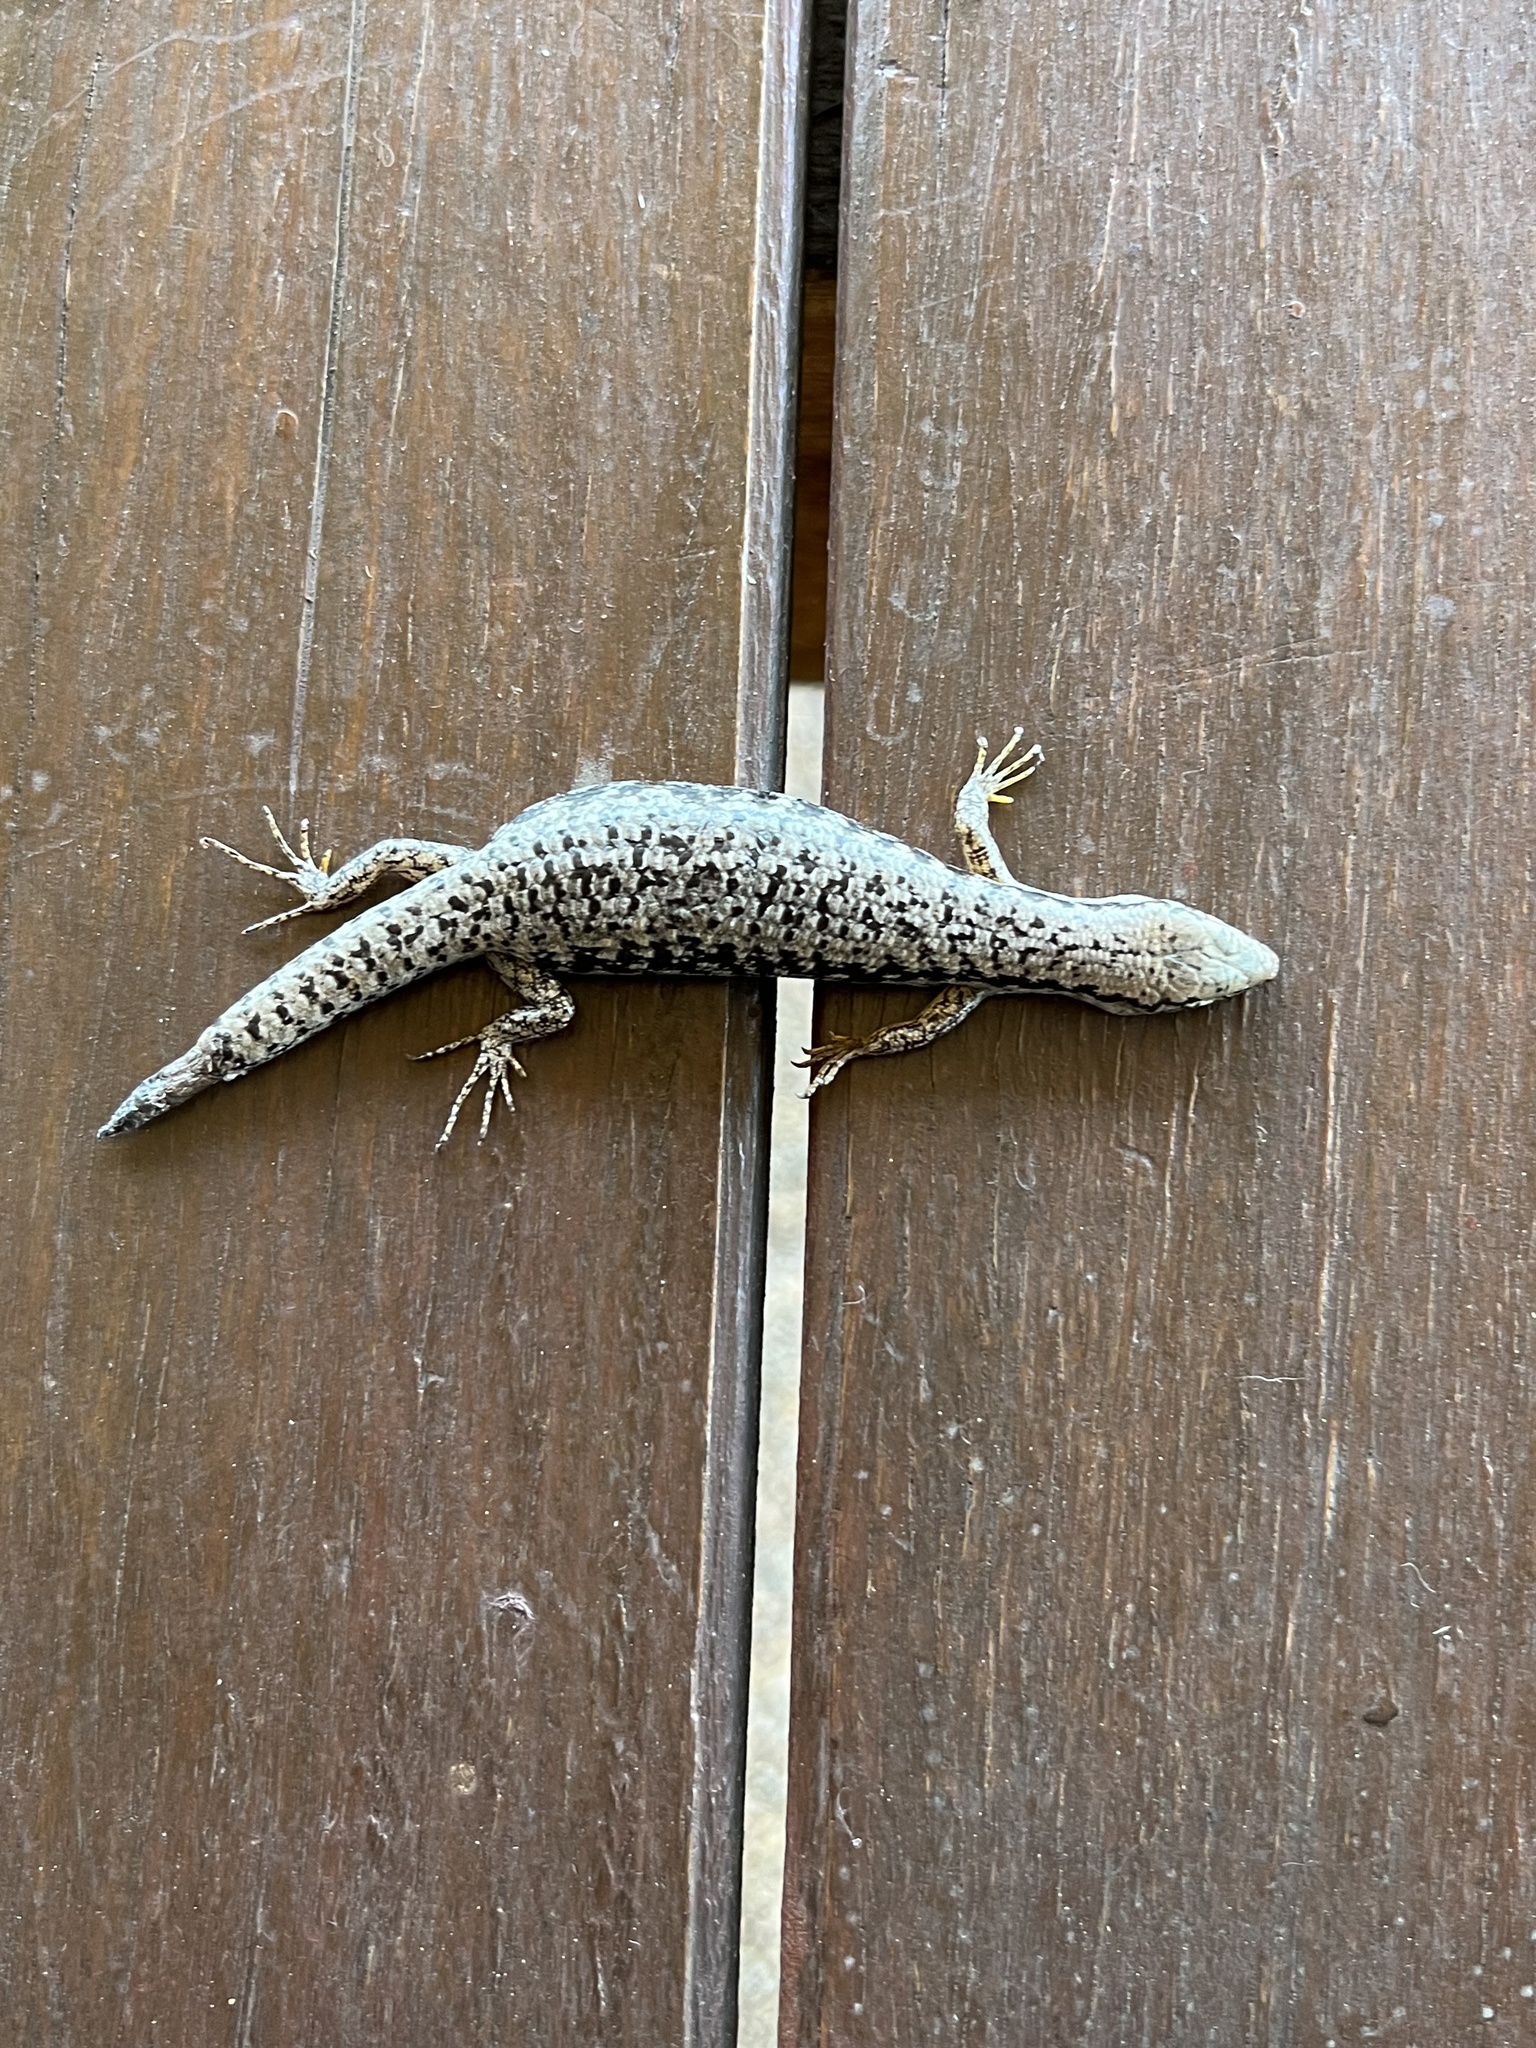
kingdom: Animalia
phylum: Chordata
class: Squamata
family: Scincidae
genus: Concinnia
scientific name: Concinnia tenuis
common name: Bar-sided forest-skink
